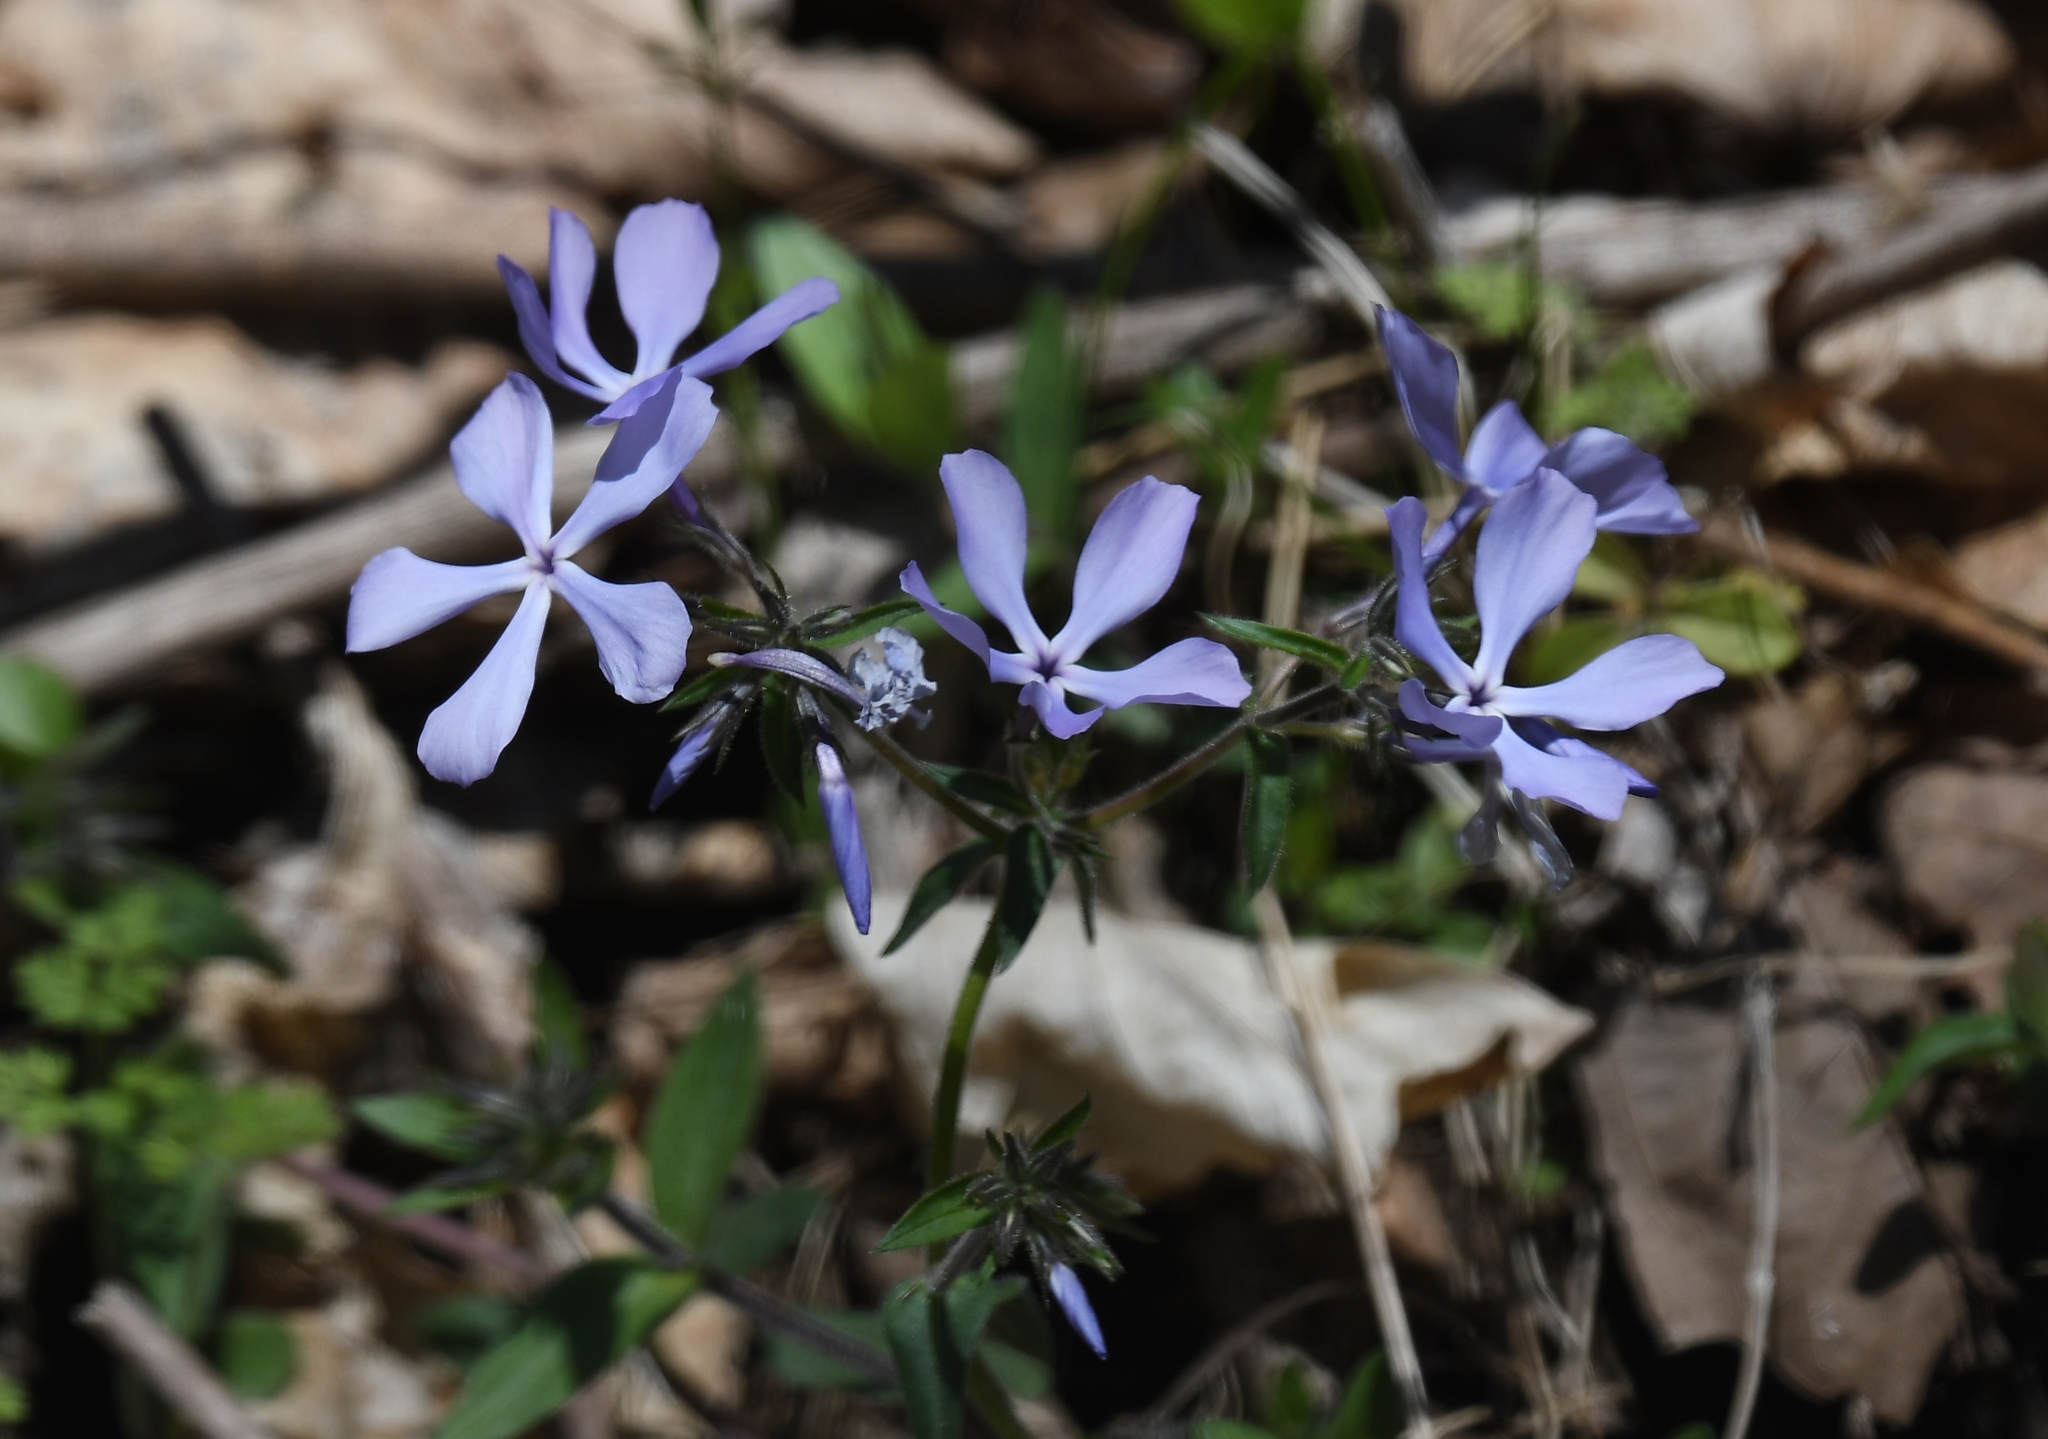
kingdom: Plantae
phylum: Tracheophyta
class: Magnoliopsida
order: Ericales
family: Polemoniaceae
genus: Phlox
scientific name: Phlox divaricata
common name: Blue phlox
